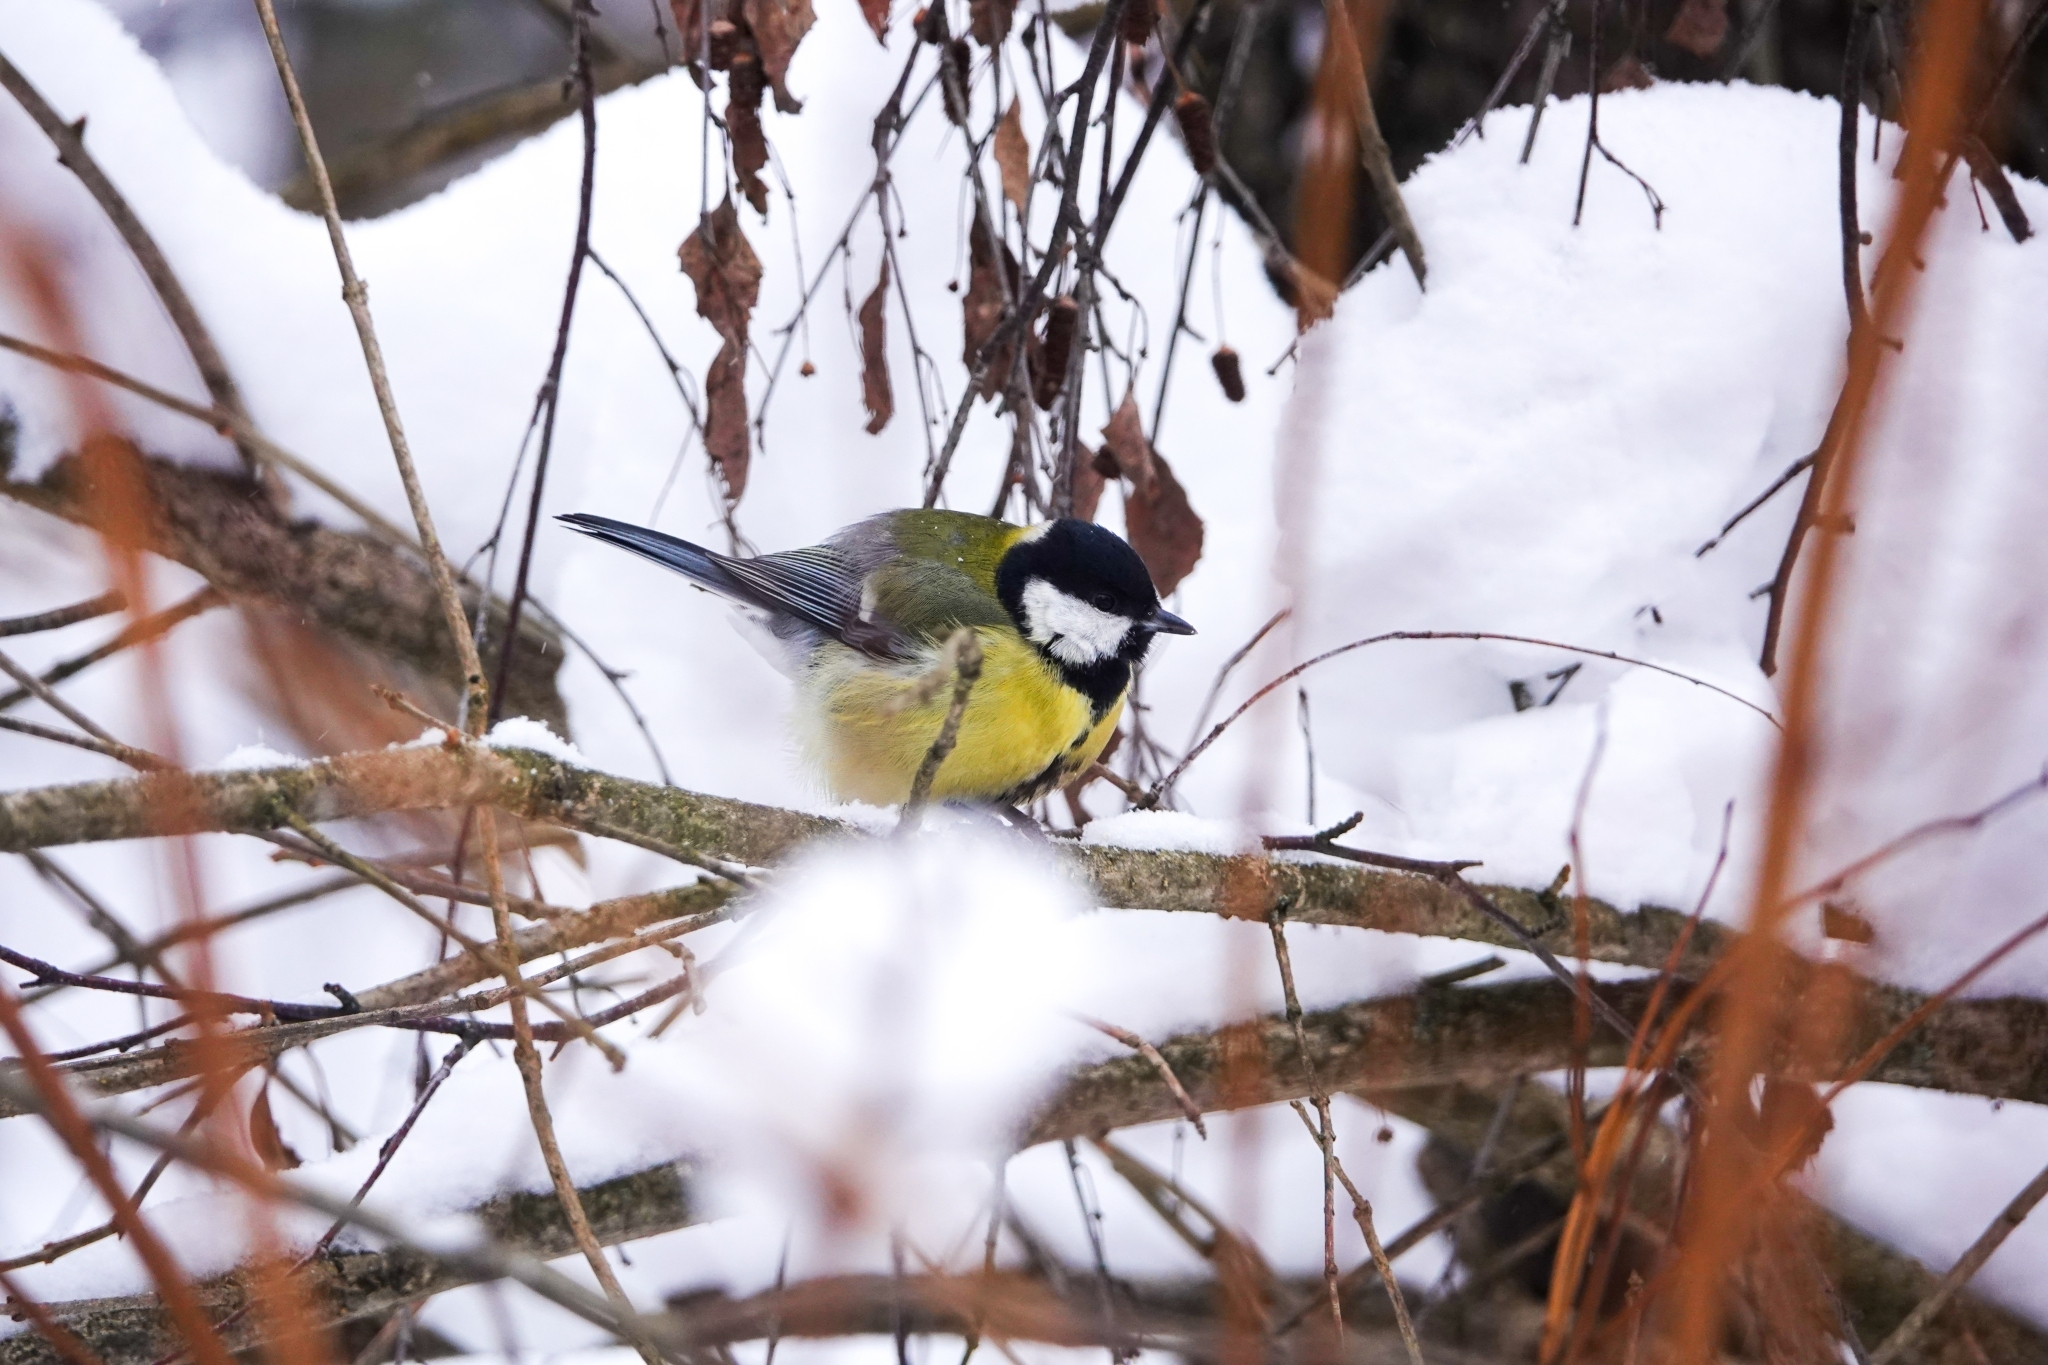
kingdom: Animalia
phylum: Chordata
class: Aves
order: Passeriformes
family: Paridae
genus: Parus
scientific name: Parus major
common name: Great tit
